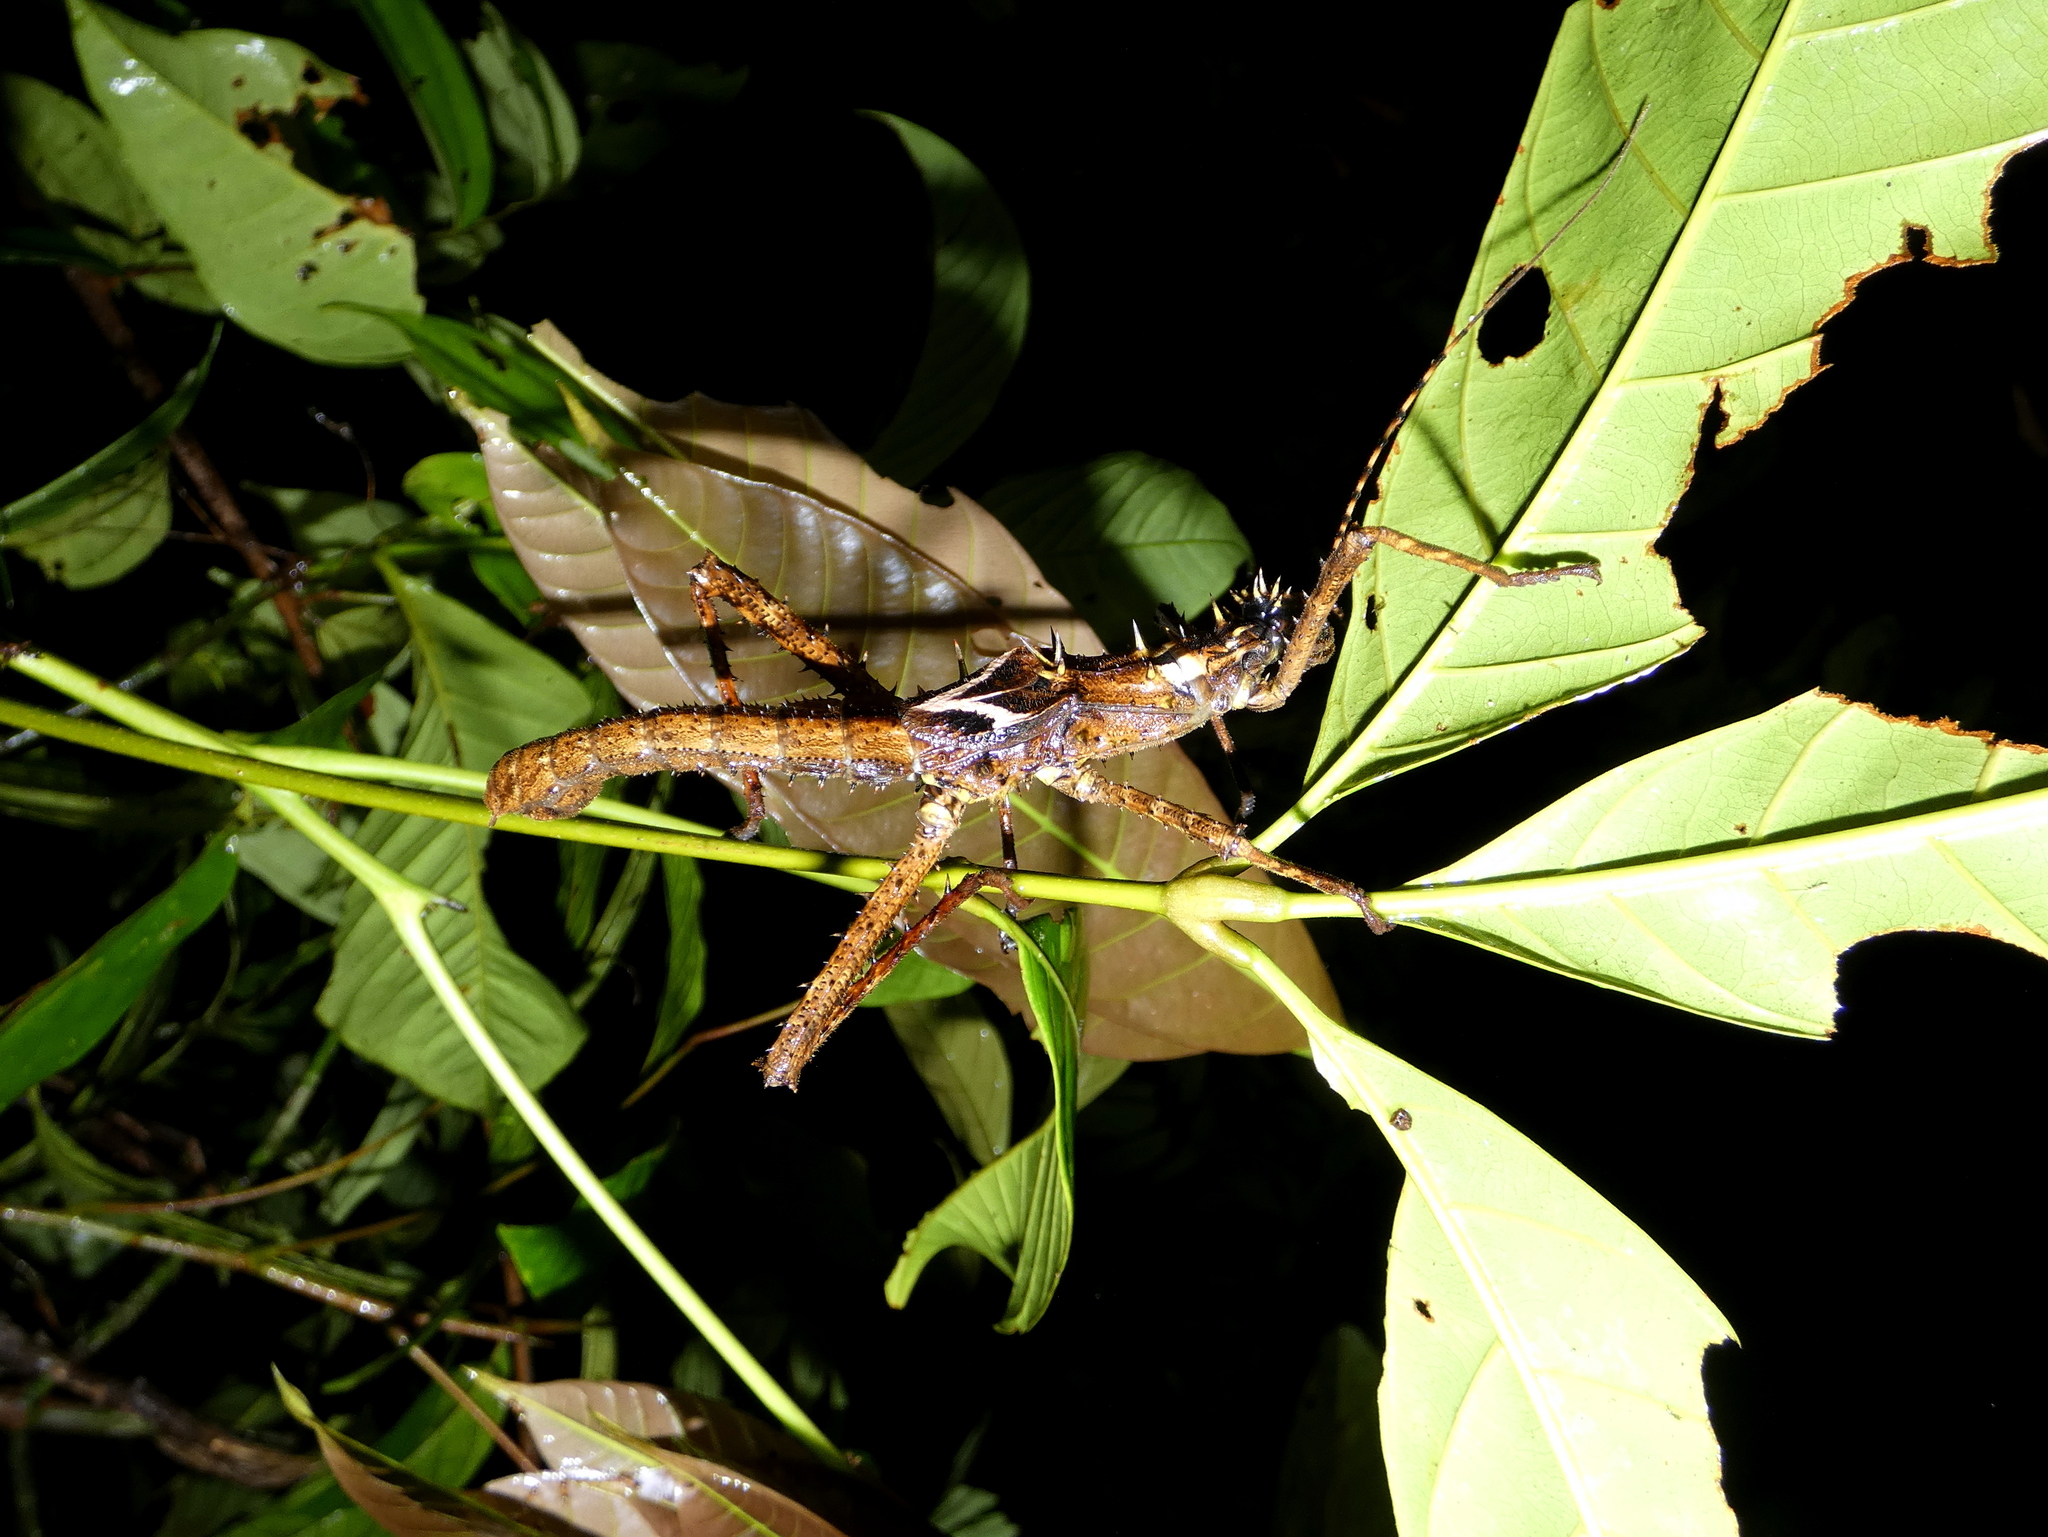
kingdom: Animalia
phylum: Arthropoda
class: Insecta
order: Phasmida
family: Heteropterygidae
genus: Haaniella
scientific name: Haaniella echinata
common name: Prickly haaniella
